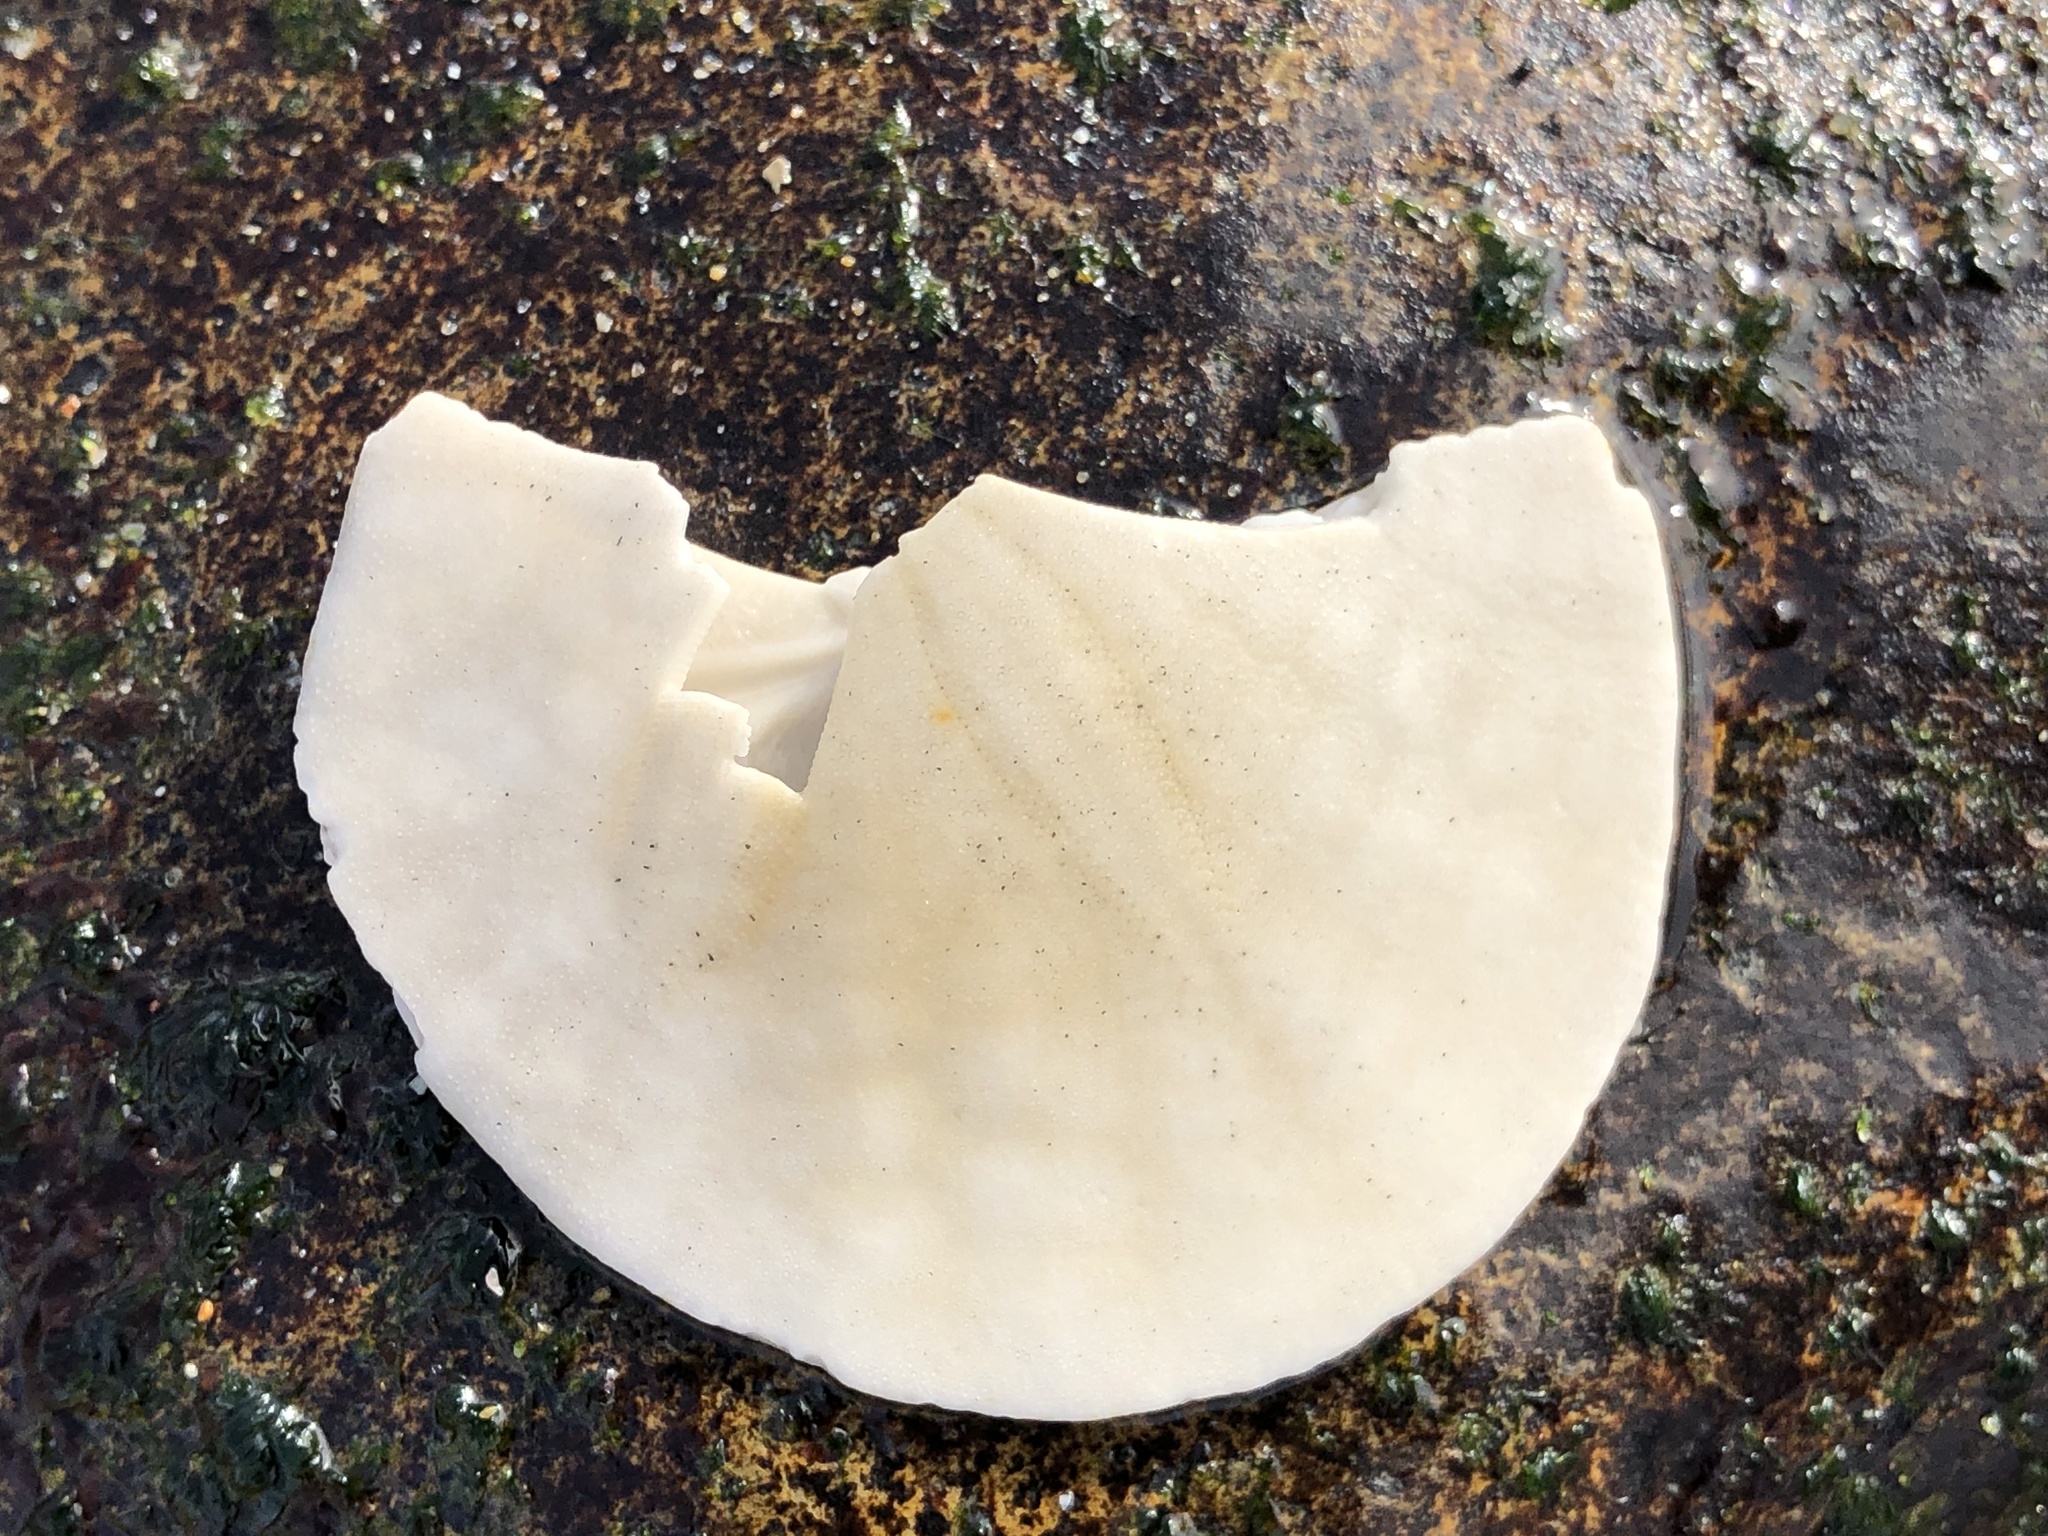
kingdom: Animalia
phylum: Echinodermata
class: Echinoidea
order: Echinolampadacea
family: Dendrasteridae
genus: Dendraster
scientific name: Dendraster excentricus
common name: Eccentric sand dollar sea urchin
